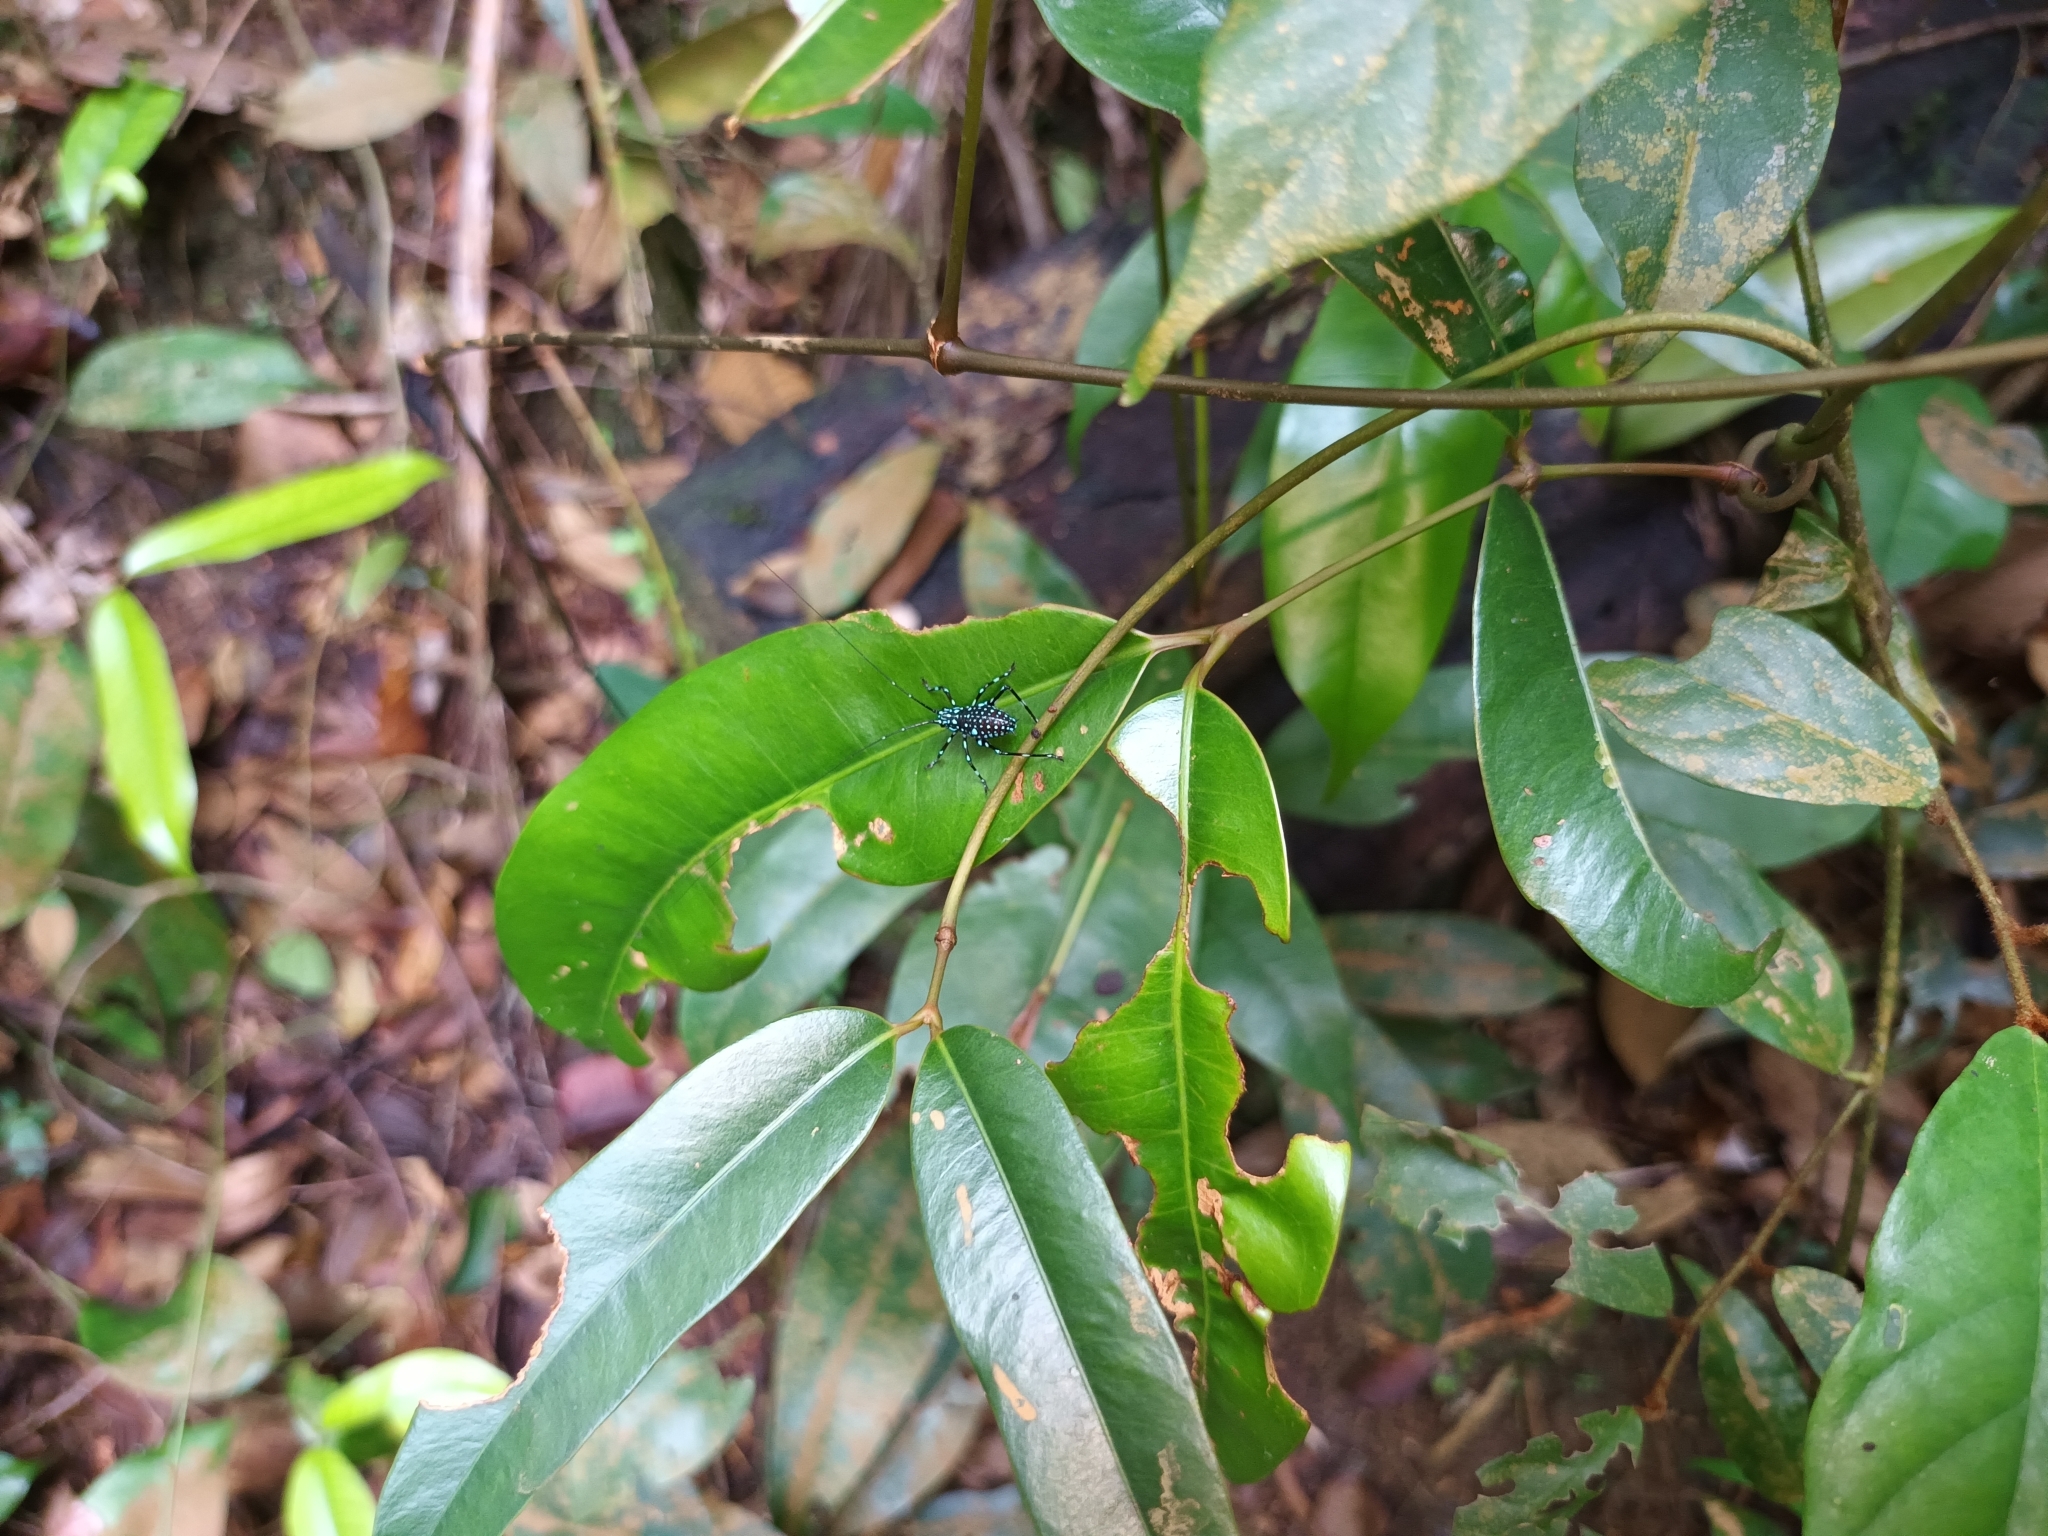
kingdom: Animalia
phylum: Arthropoda
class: Insecta
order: Orthoptera
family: Tettigoniidae
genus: Scambophyllum
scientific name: Scambophyllum sanguinolentum
